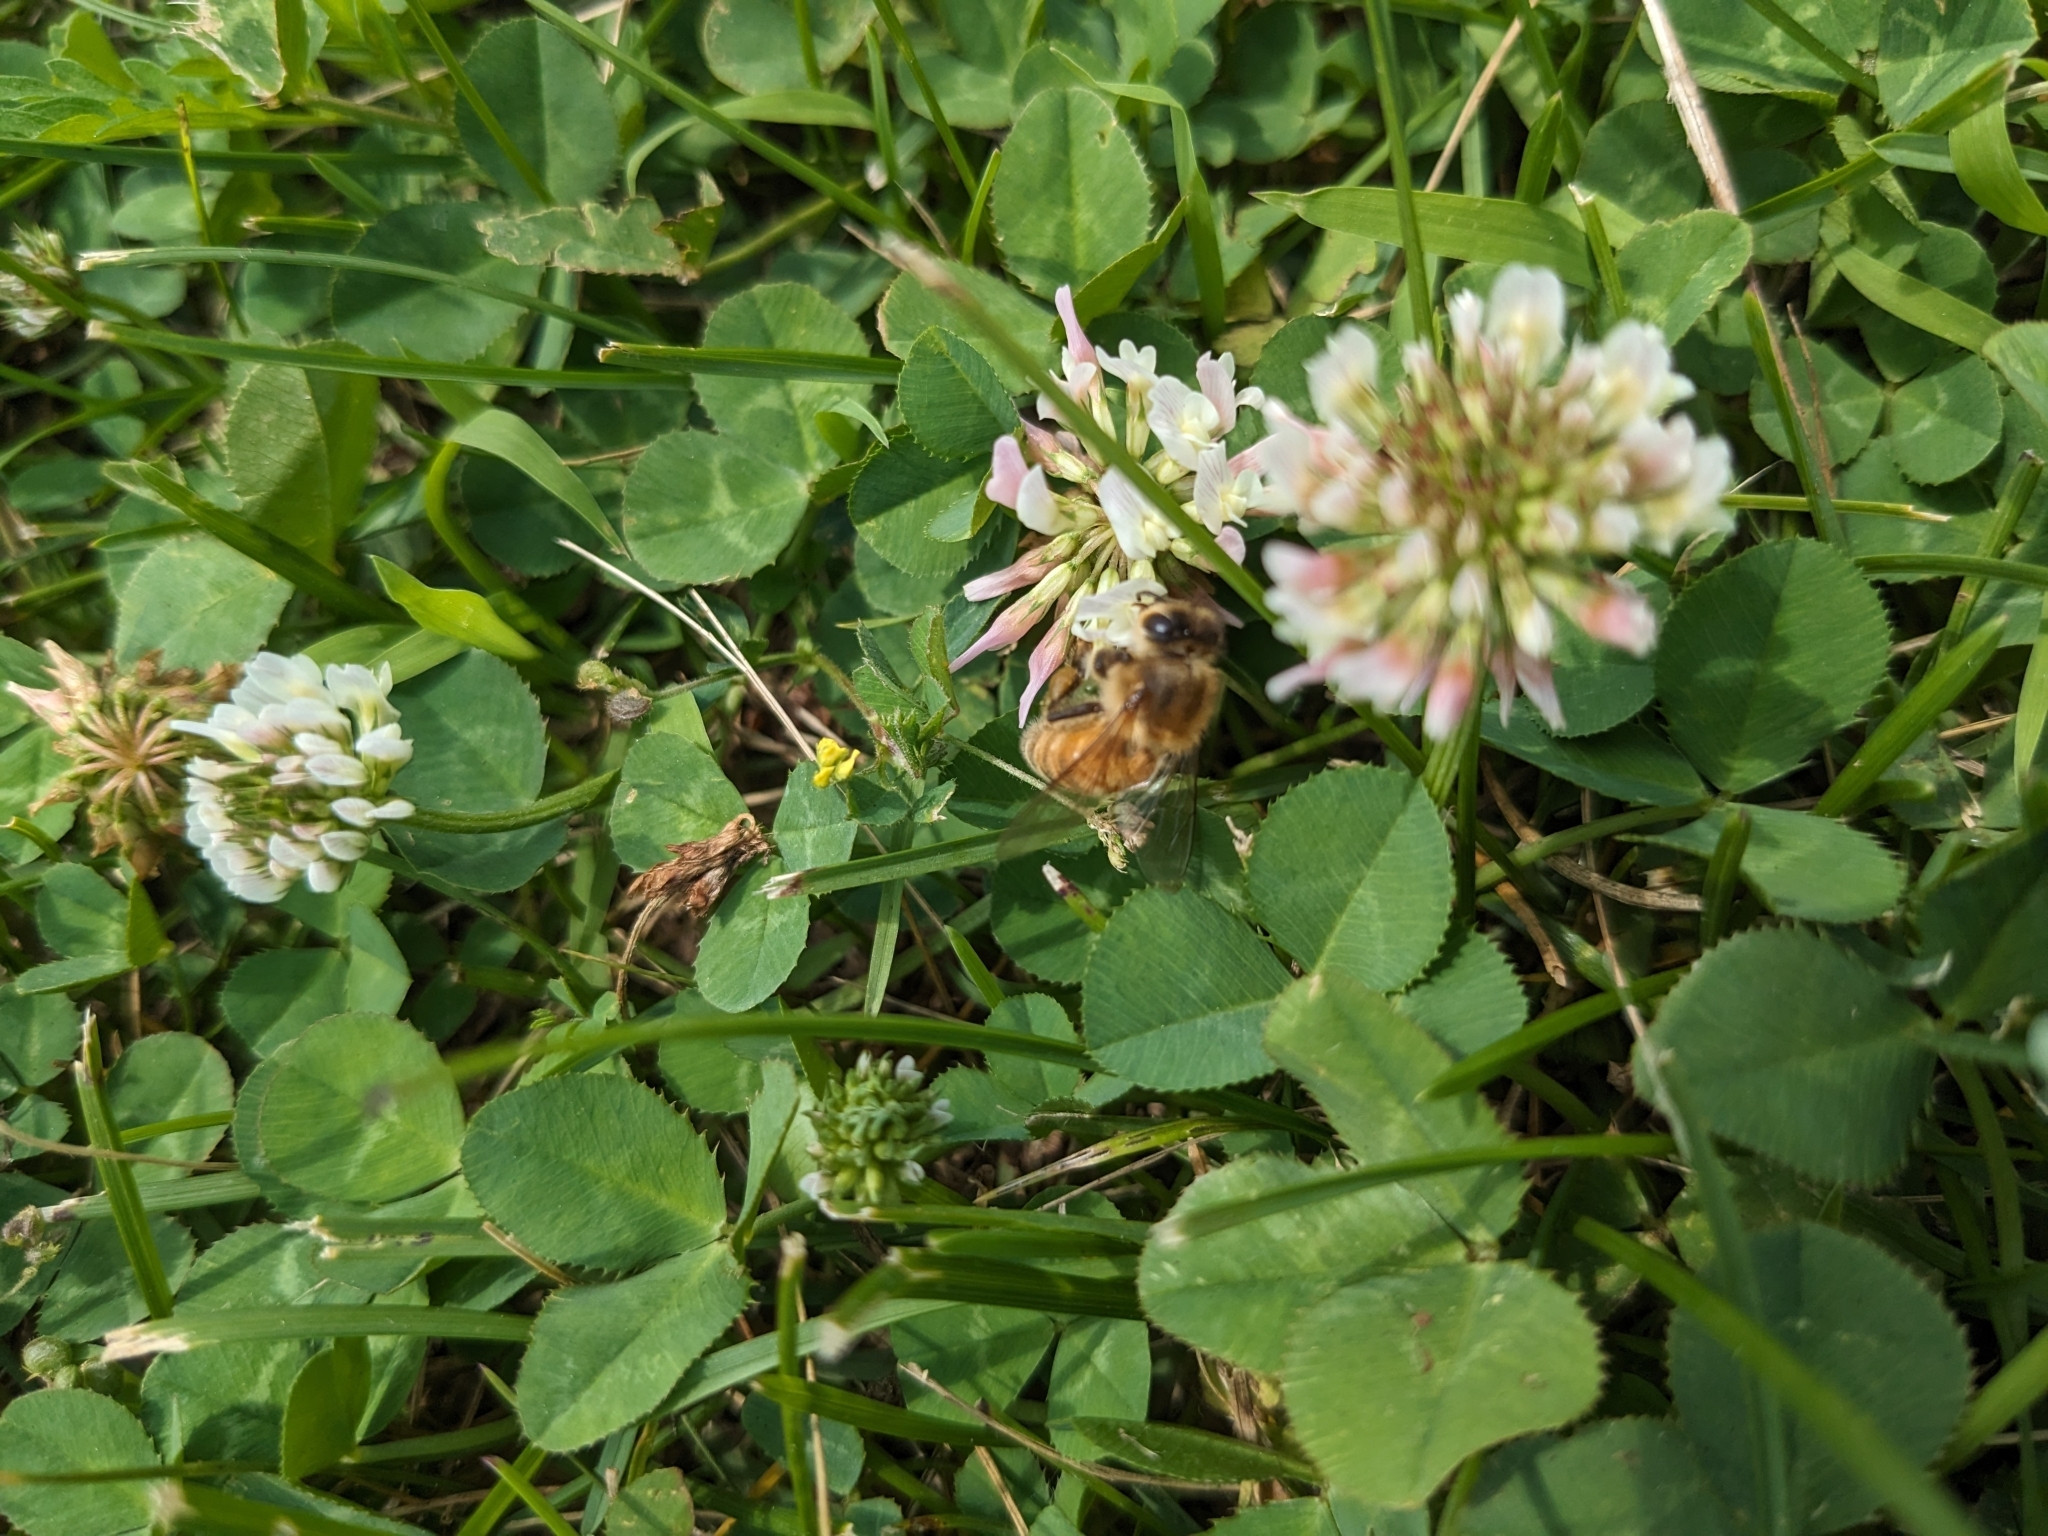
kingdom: Animalia
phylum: Arthropoda
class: Insecta
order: Hymenoptera
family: Apidae
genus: Apis
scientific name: Apis mellifera
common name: Honey bee
